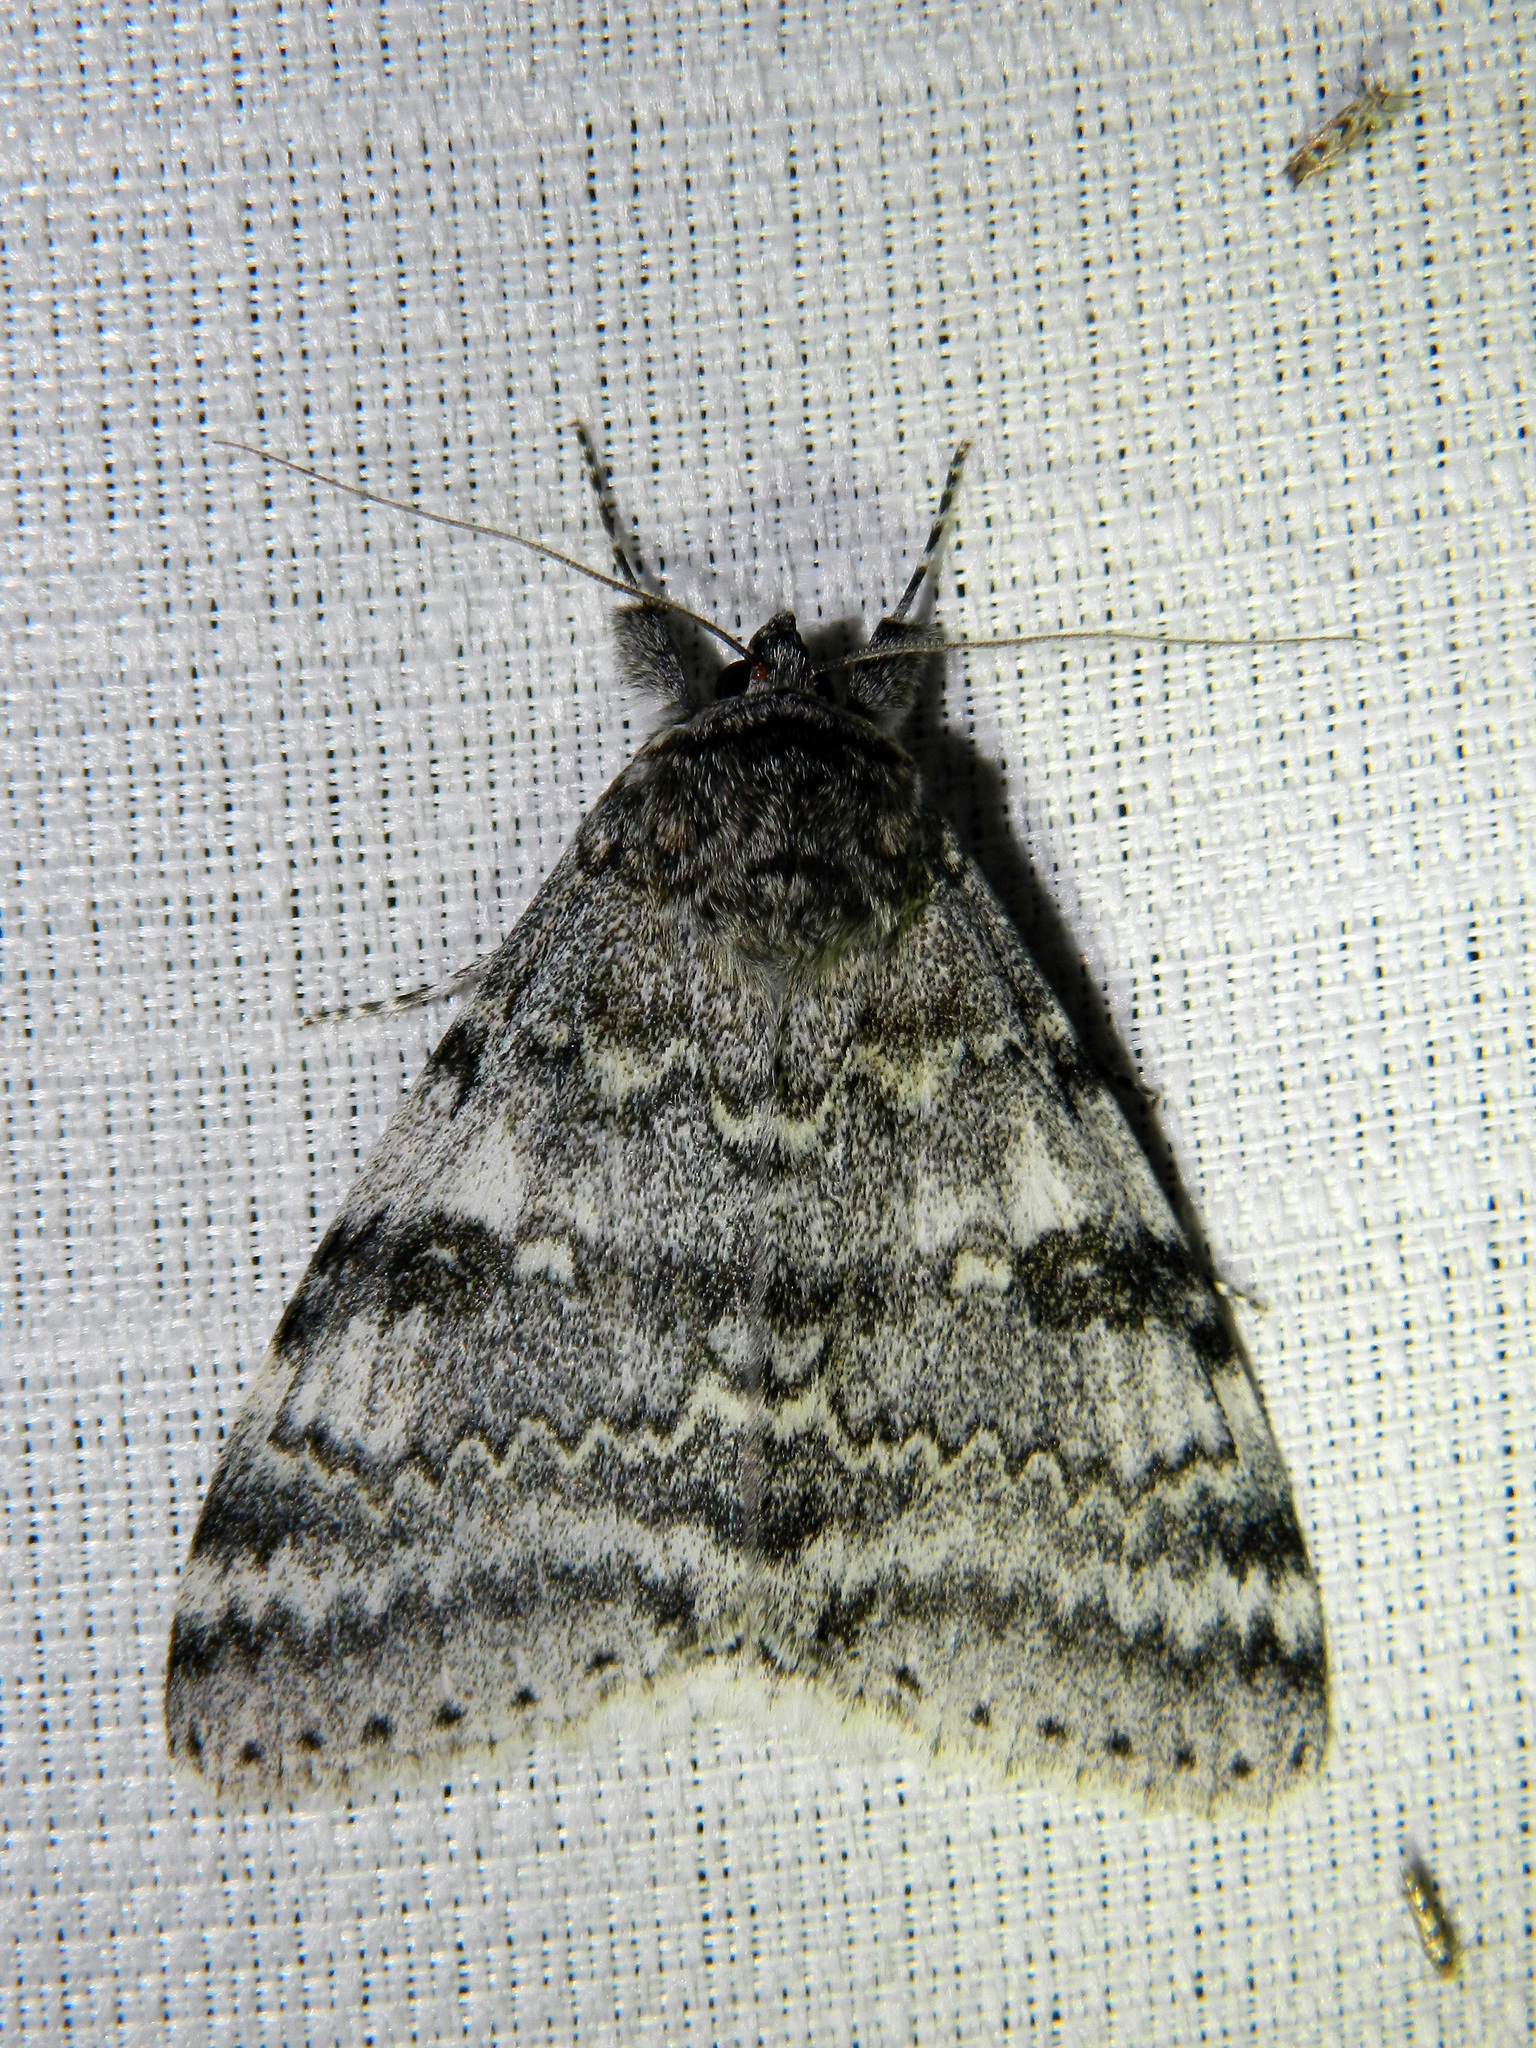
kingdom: Animalia
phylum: Arthropoda
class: Insecta
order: Lepidoptera
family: Erebidae
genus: Catocala
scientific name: Catocala relicta
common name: White underwing
